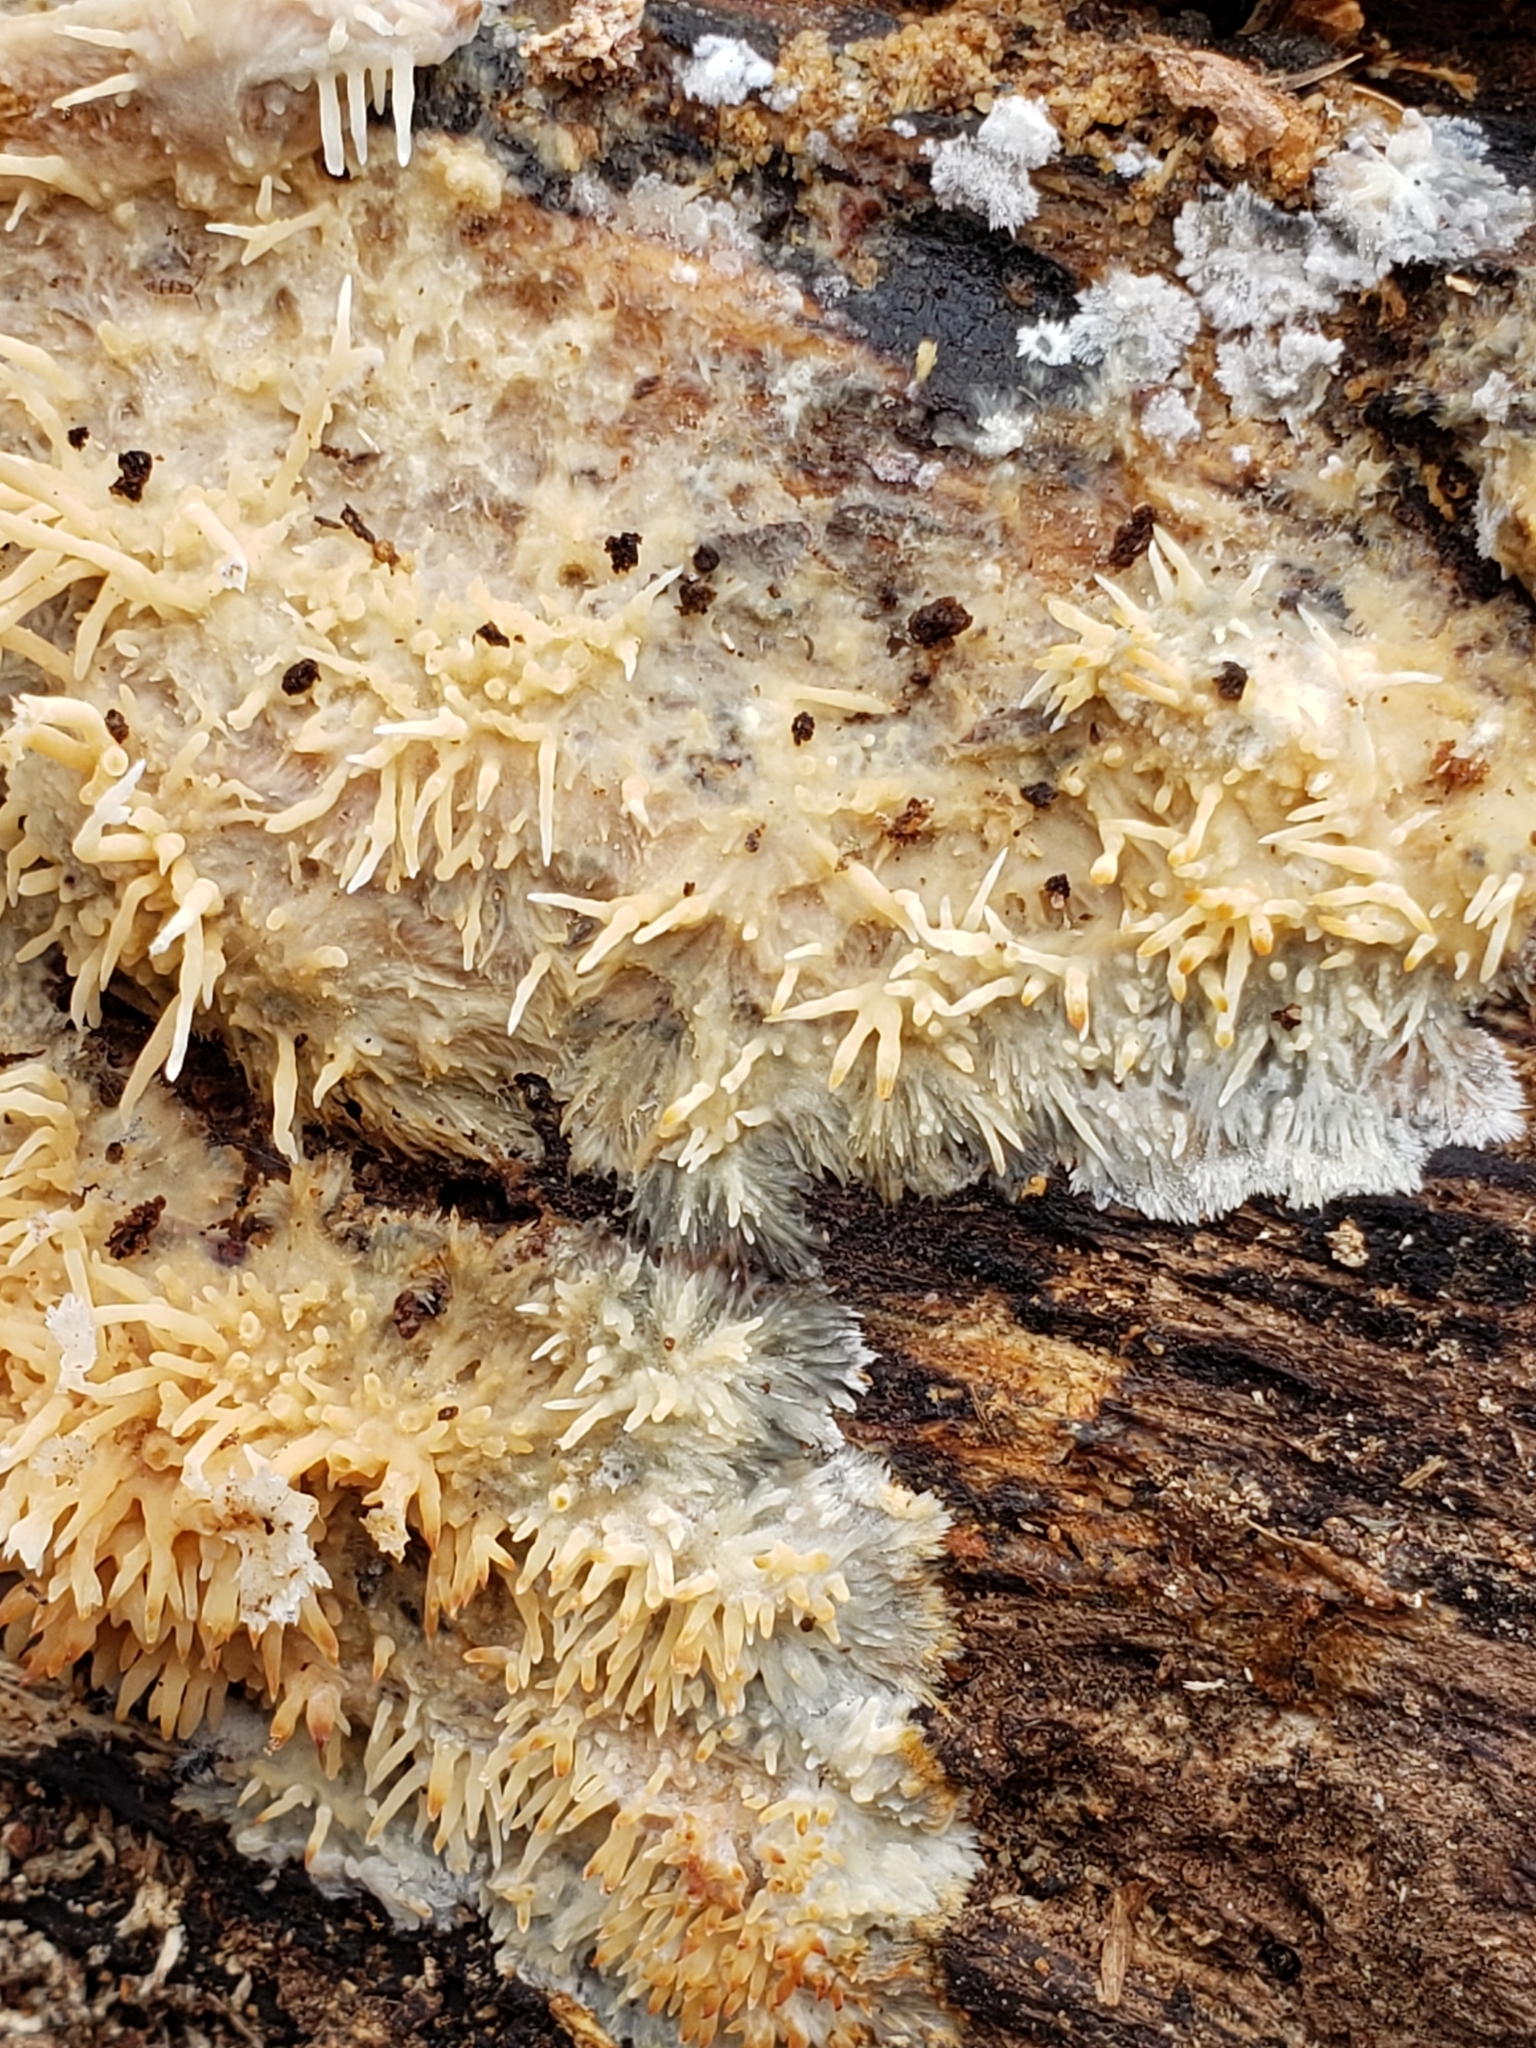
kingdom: Fungi
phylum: Basidiomycota
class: Agaricomycetes
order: Agaricales
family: Radulomycetaceae
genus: Radulomyces
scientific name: Radulomyces copelandii
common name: Asian beauty
